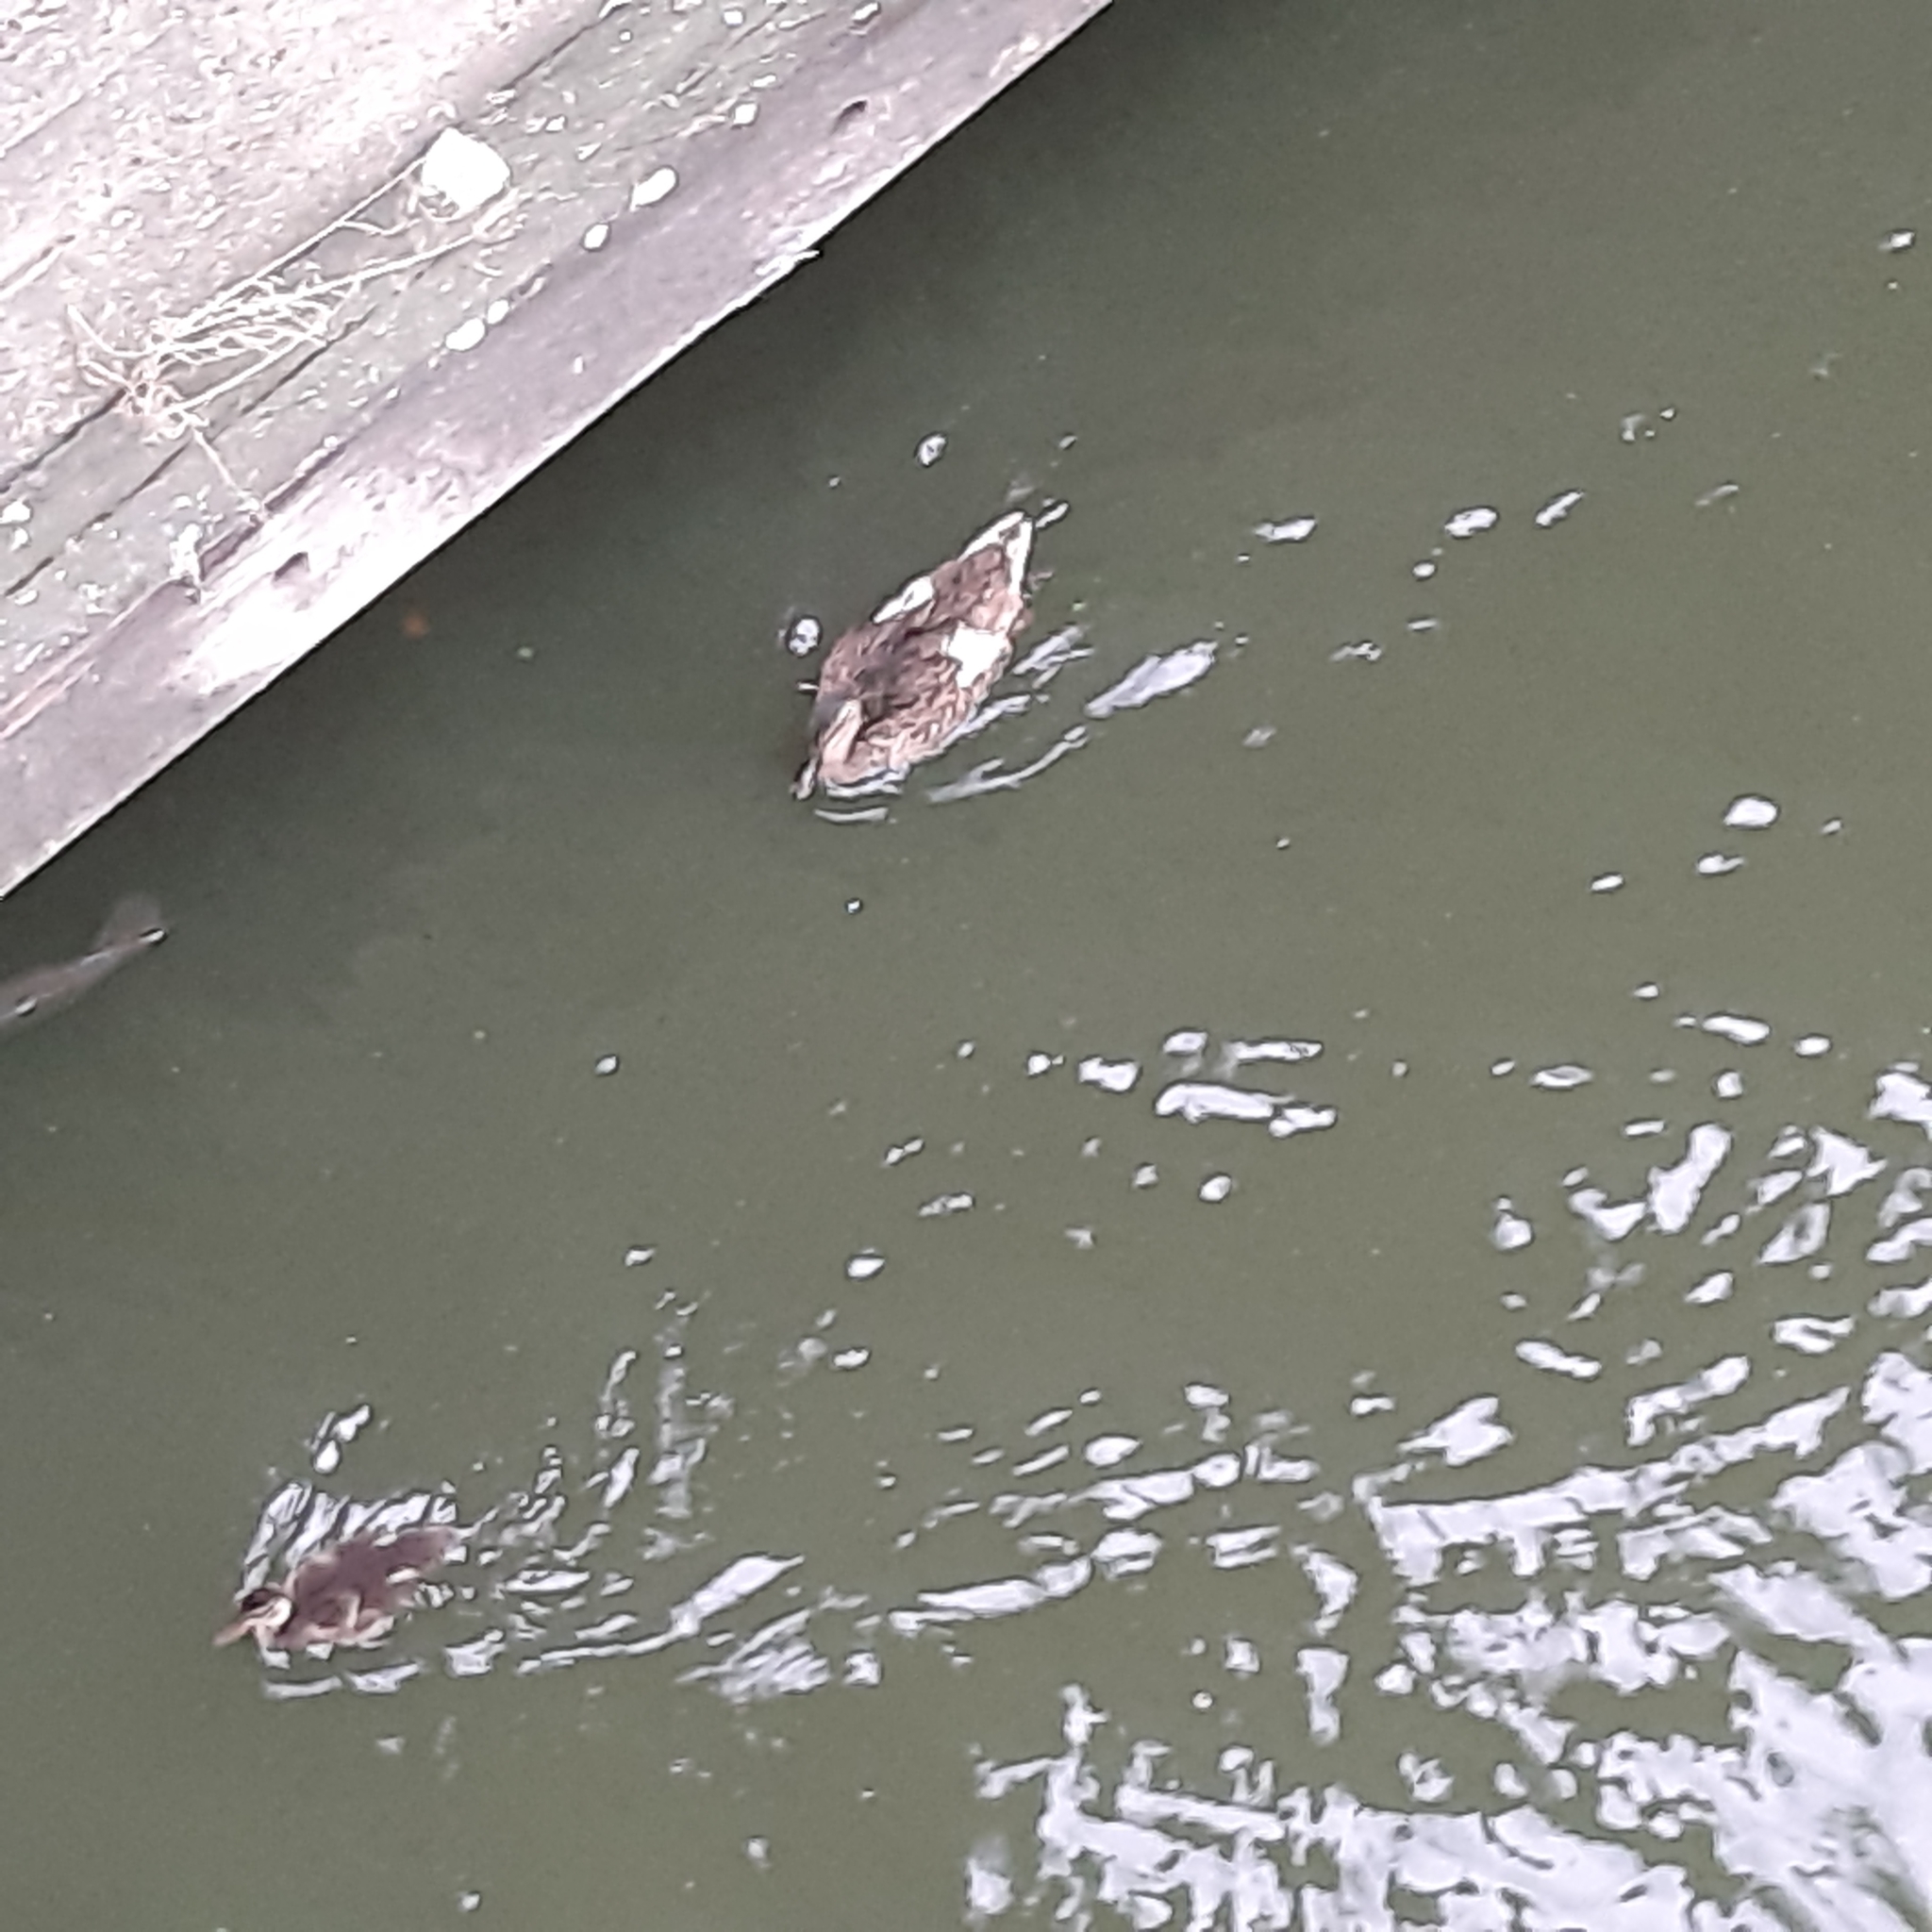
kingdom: Animalia
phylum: Chordata
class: Aves
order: Anseriformes
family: Anatidae
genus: Anas
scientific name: Anas platyrhynchos
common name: Mallard
